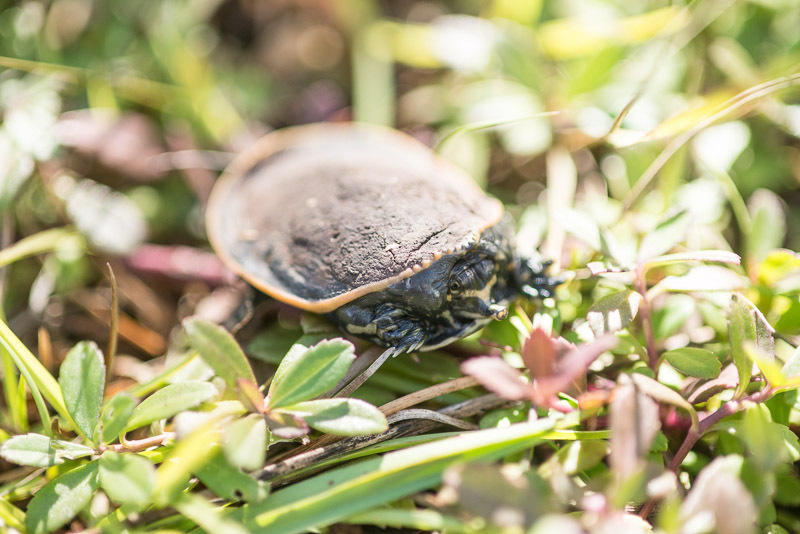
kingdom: Animalia
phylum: Chordata
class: Testudines
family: Trionychidae
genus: Apalone
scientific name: Apalone ferox
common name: Florida softshell turtle
